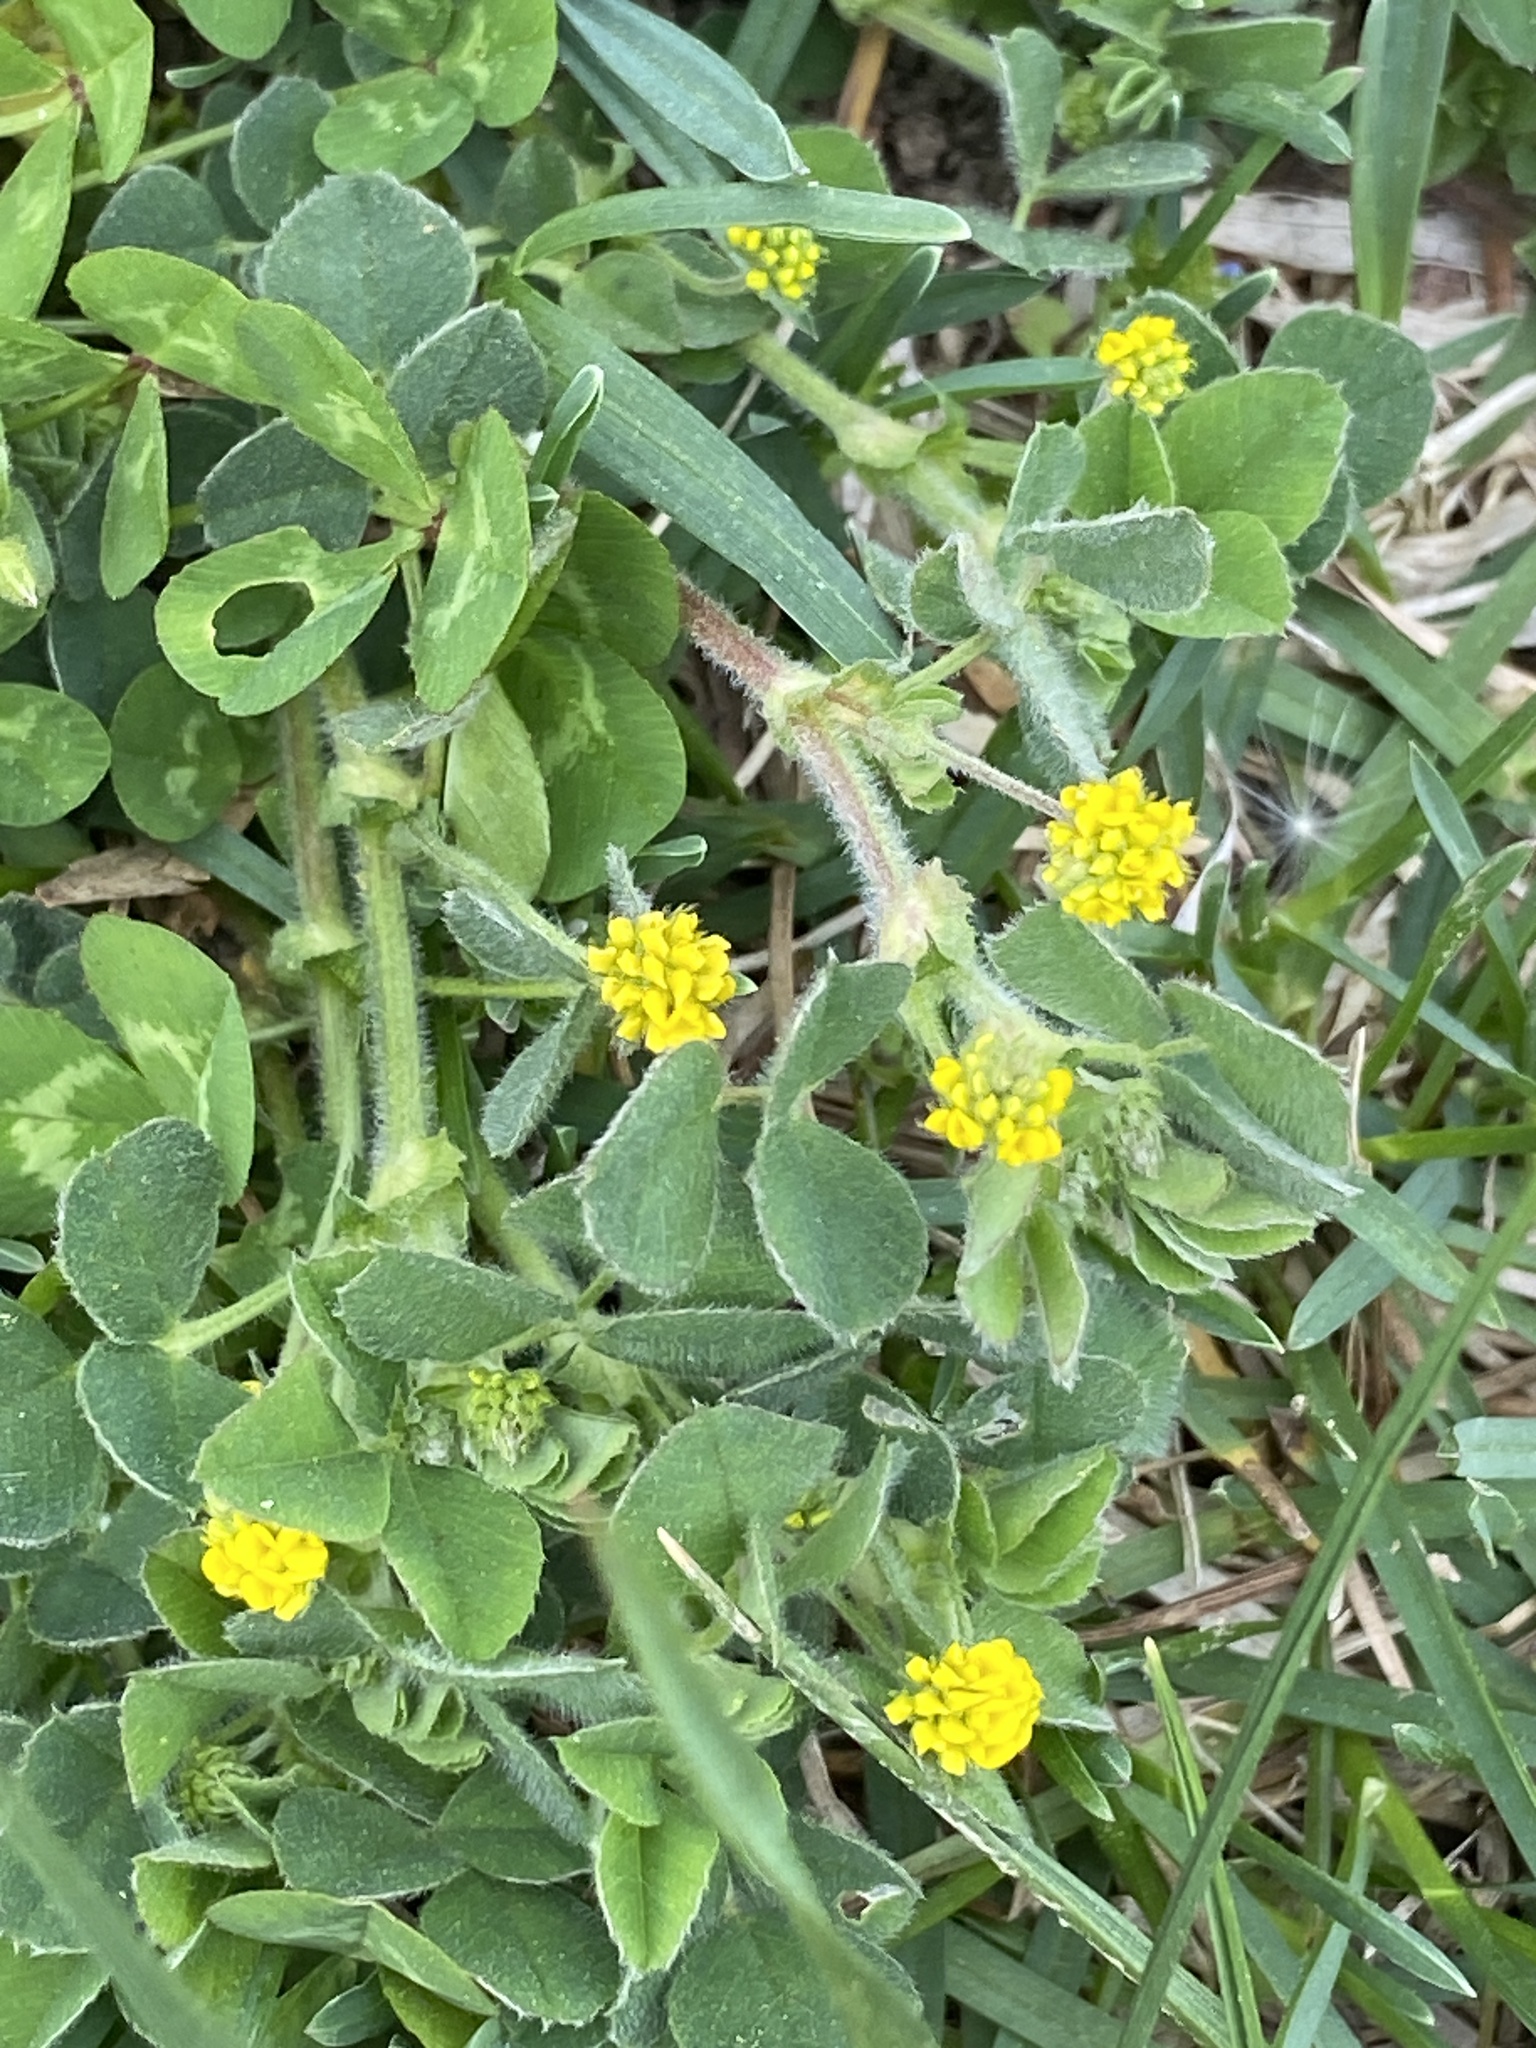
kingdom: Plantae
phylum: Tracheophyta
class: Magnoliopsida
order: Fabales
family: Fabaceae
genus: Medicago
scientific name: Medicago lupulina
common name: Black medick
